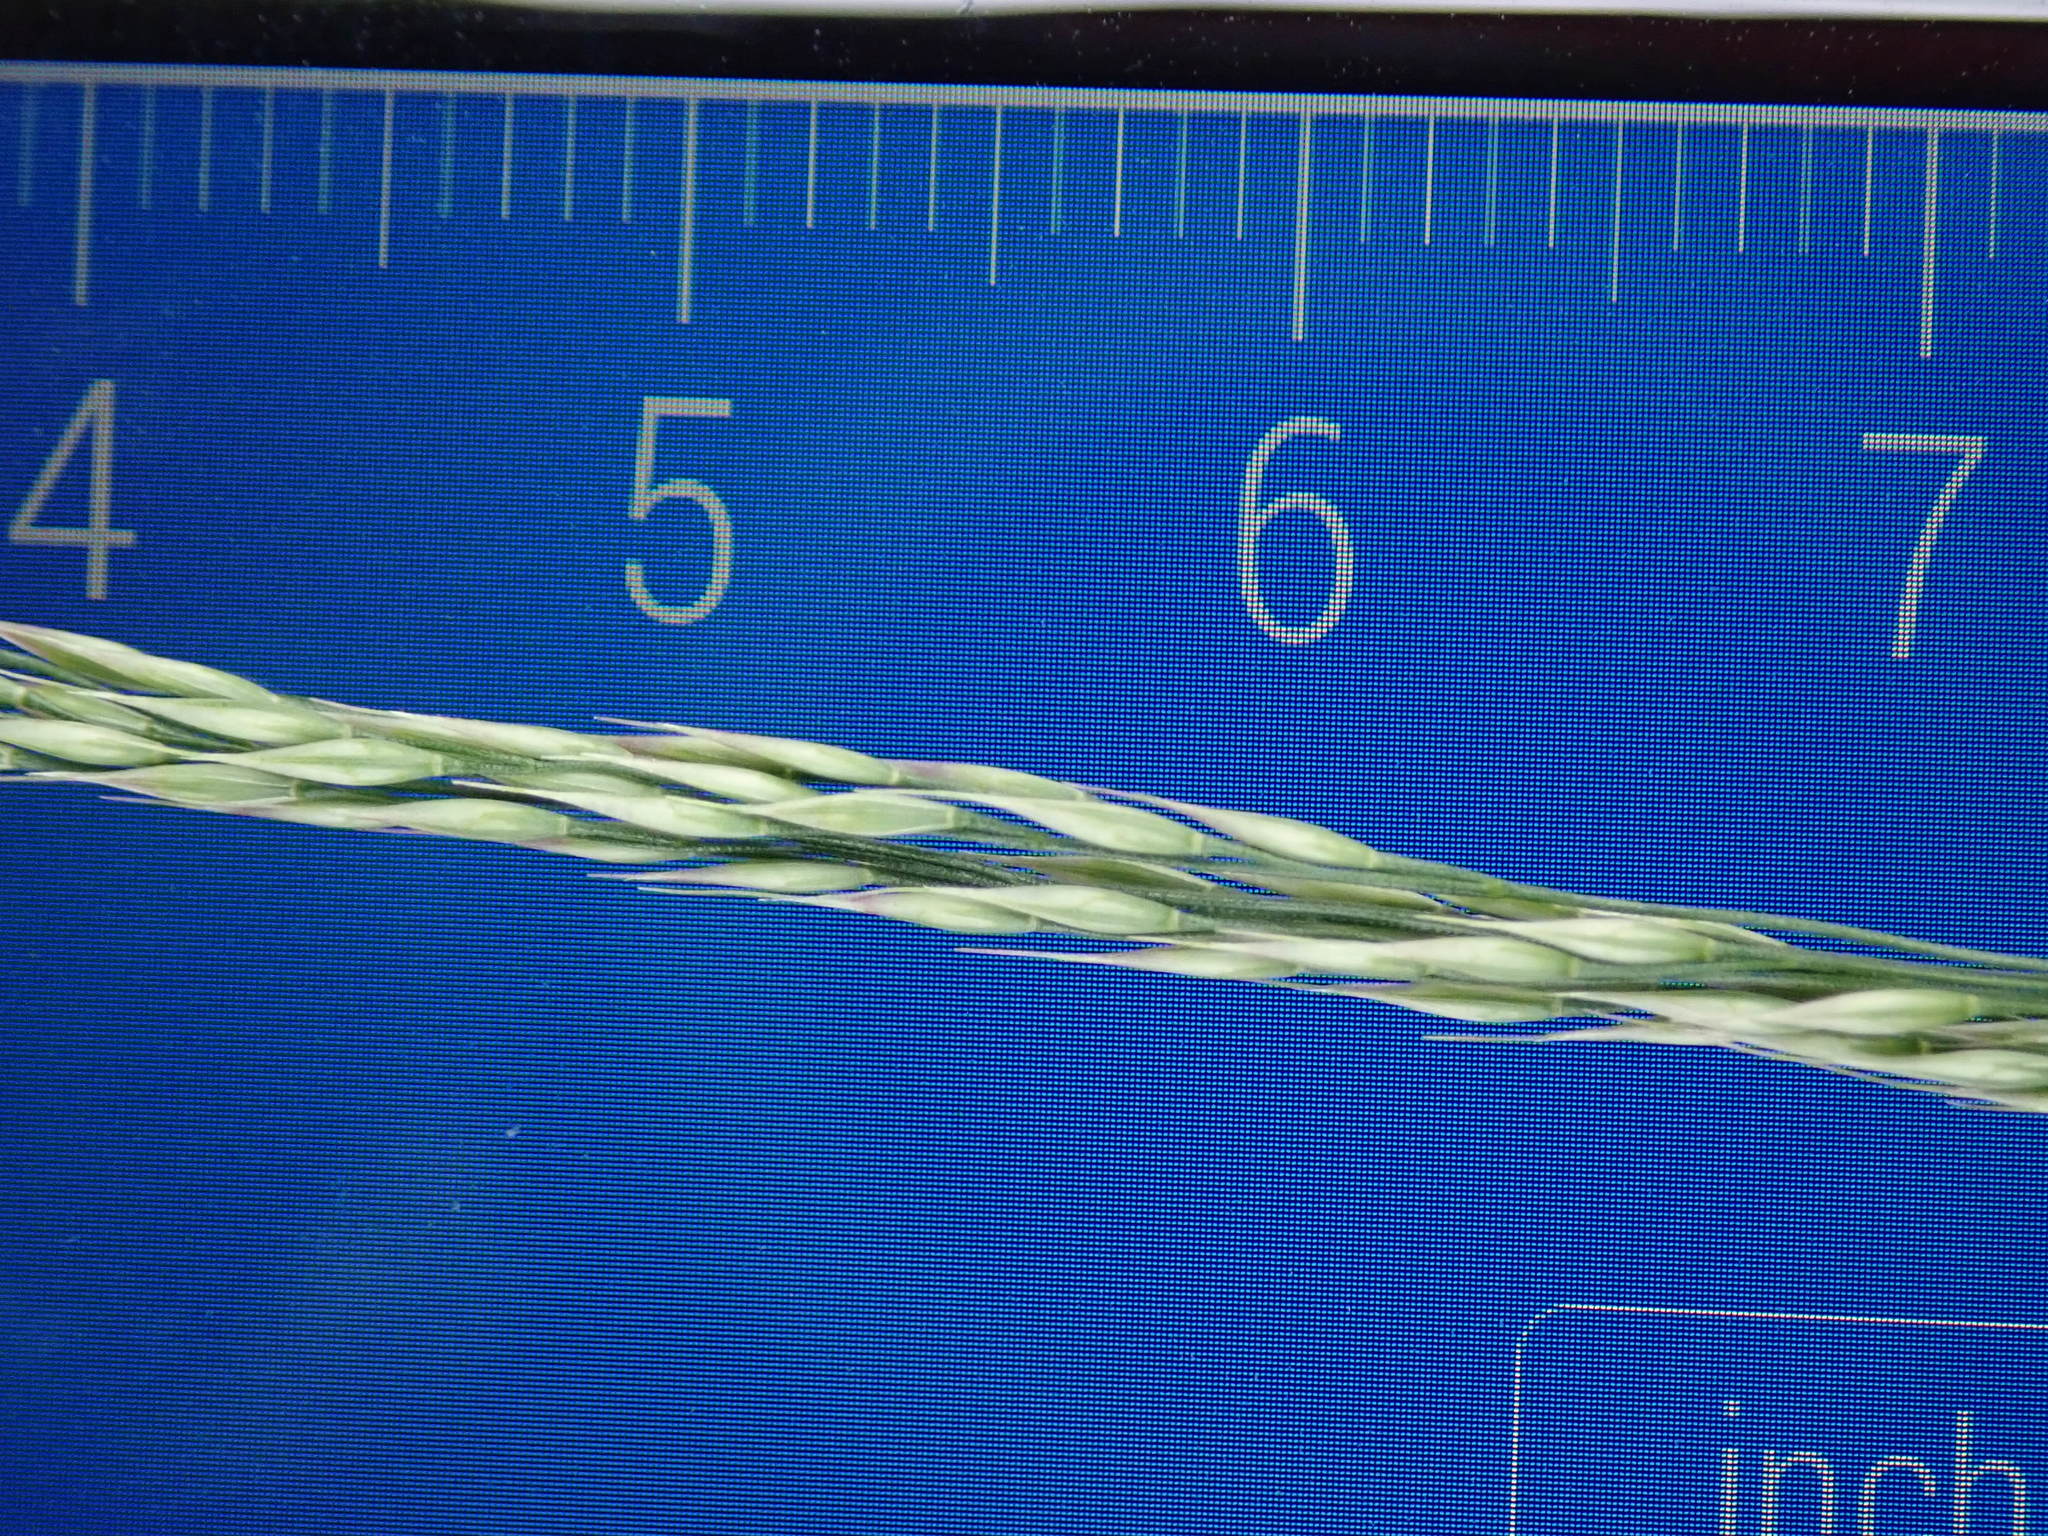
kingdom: Plantae
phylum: Tracheophyta
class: Liliopsida
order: Poales
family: Poaceae
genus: Oloptum
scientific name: Oloptum miliaceum
